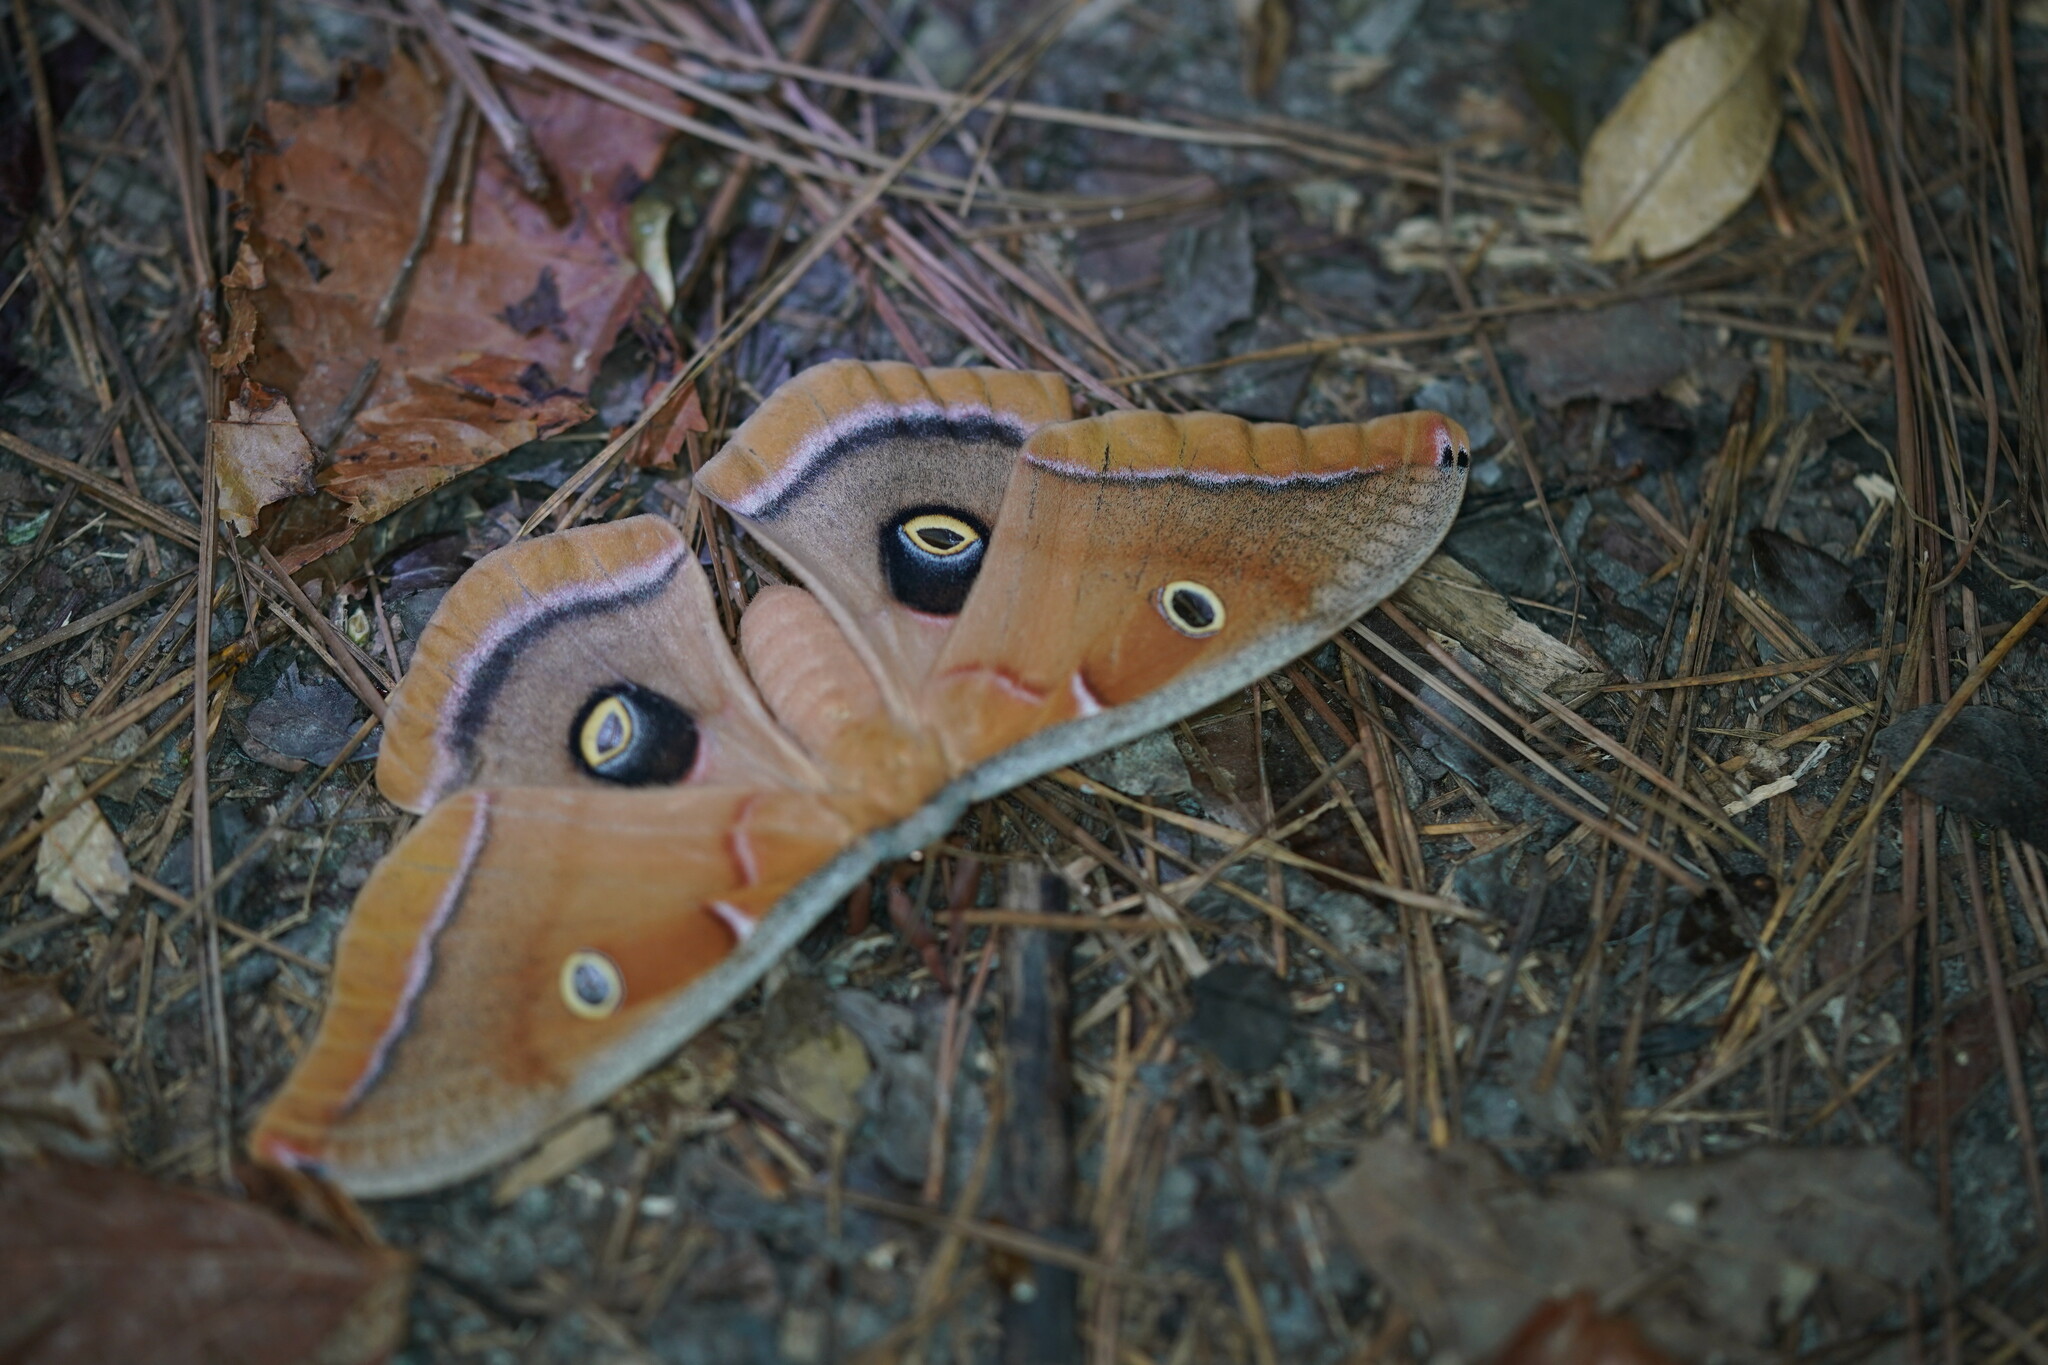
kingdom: Animalia
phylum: Arthropoda
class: Insecta
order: Lepidoptera
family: Saturniidae
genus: Antheraea
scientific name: Antheraea polyphemus
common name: Polyphemus moth
